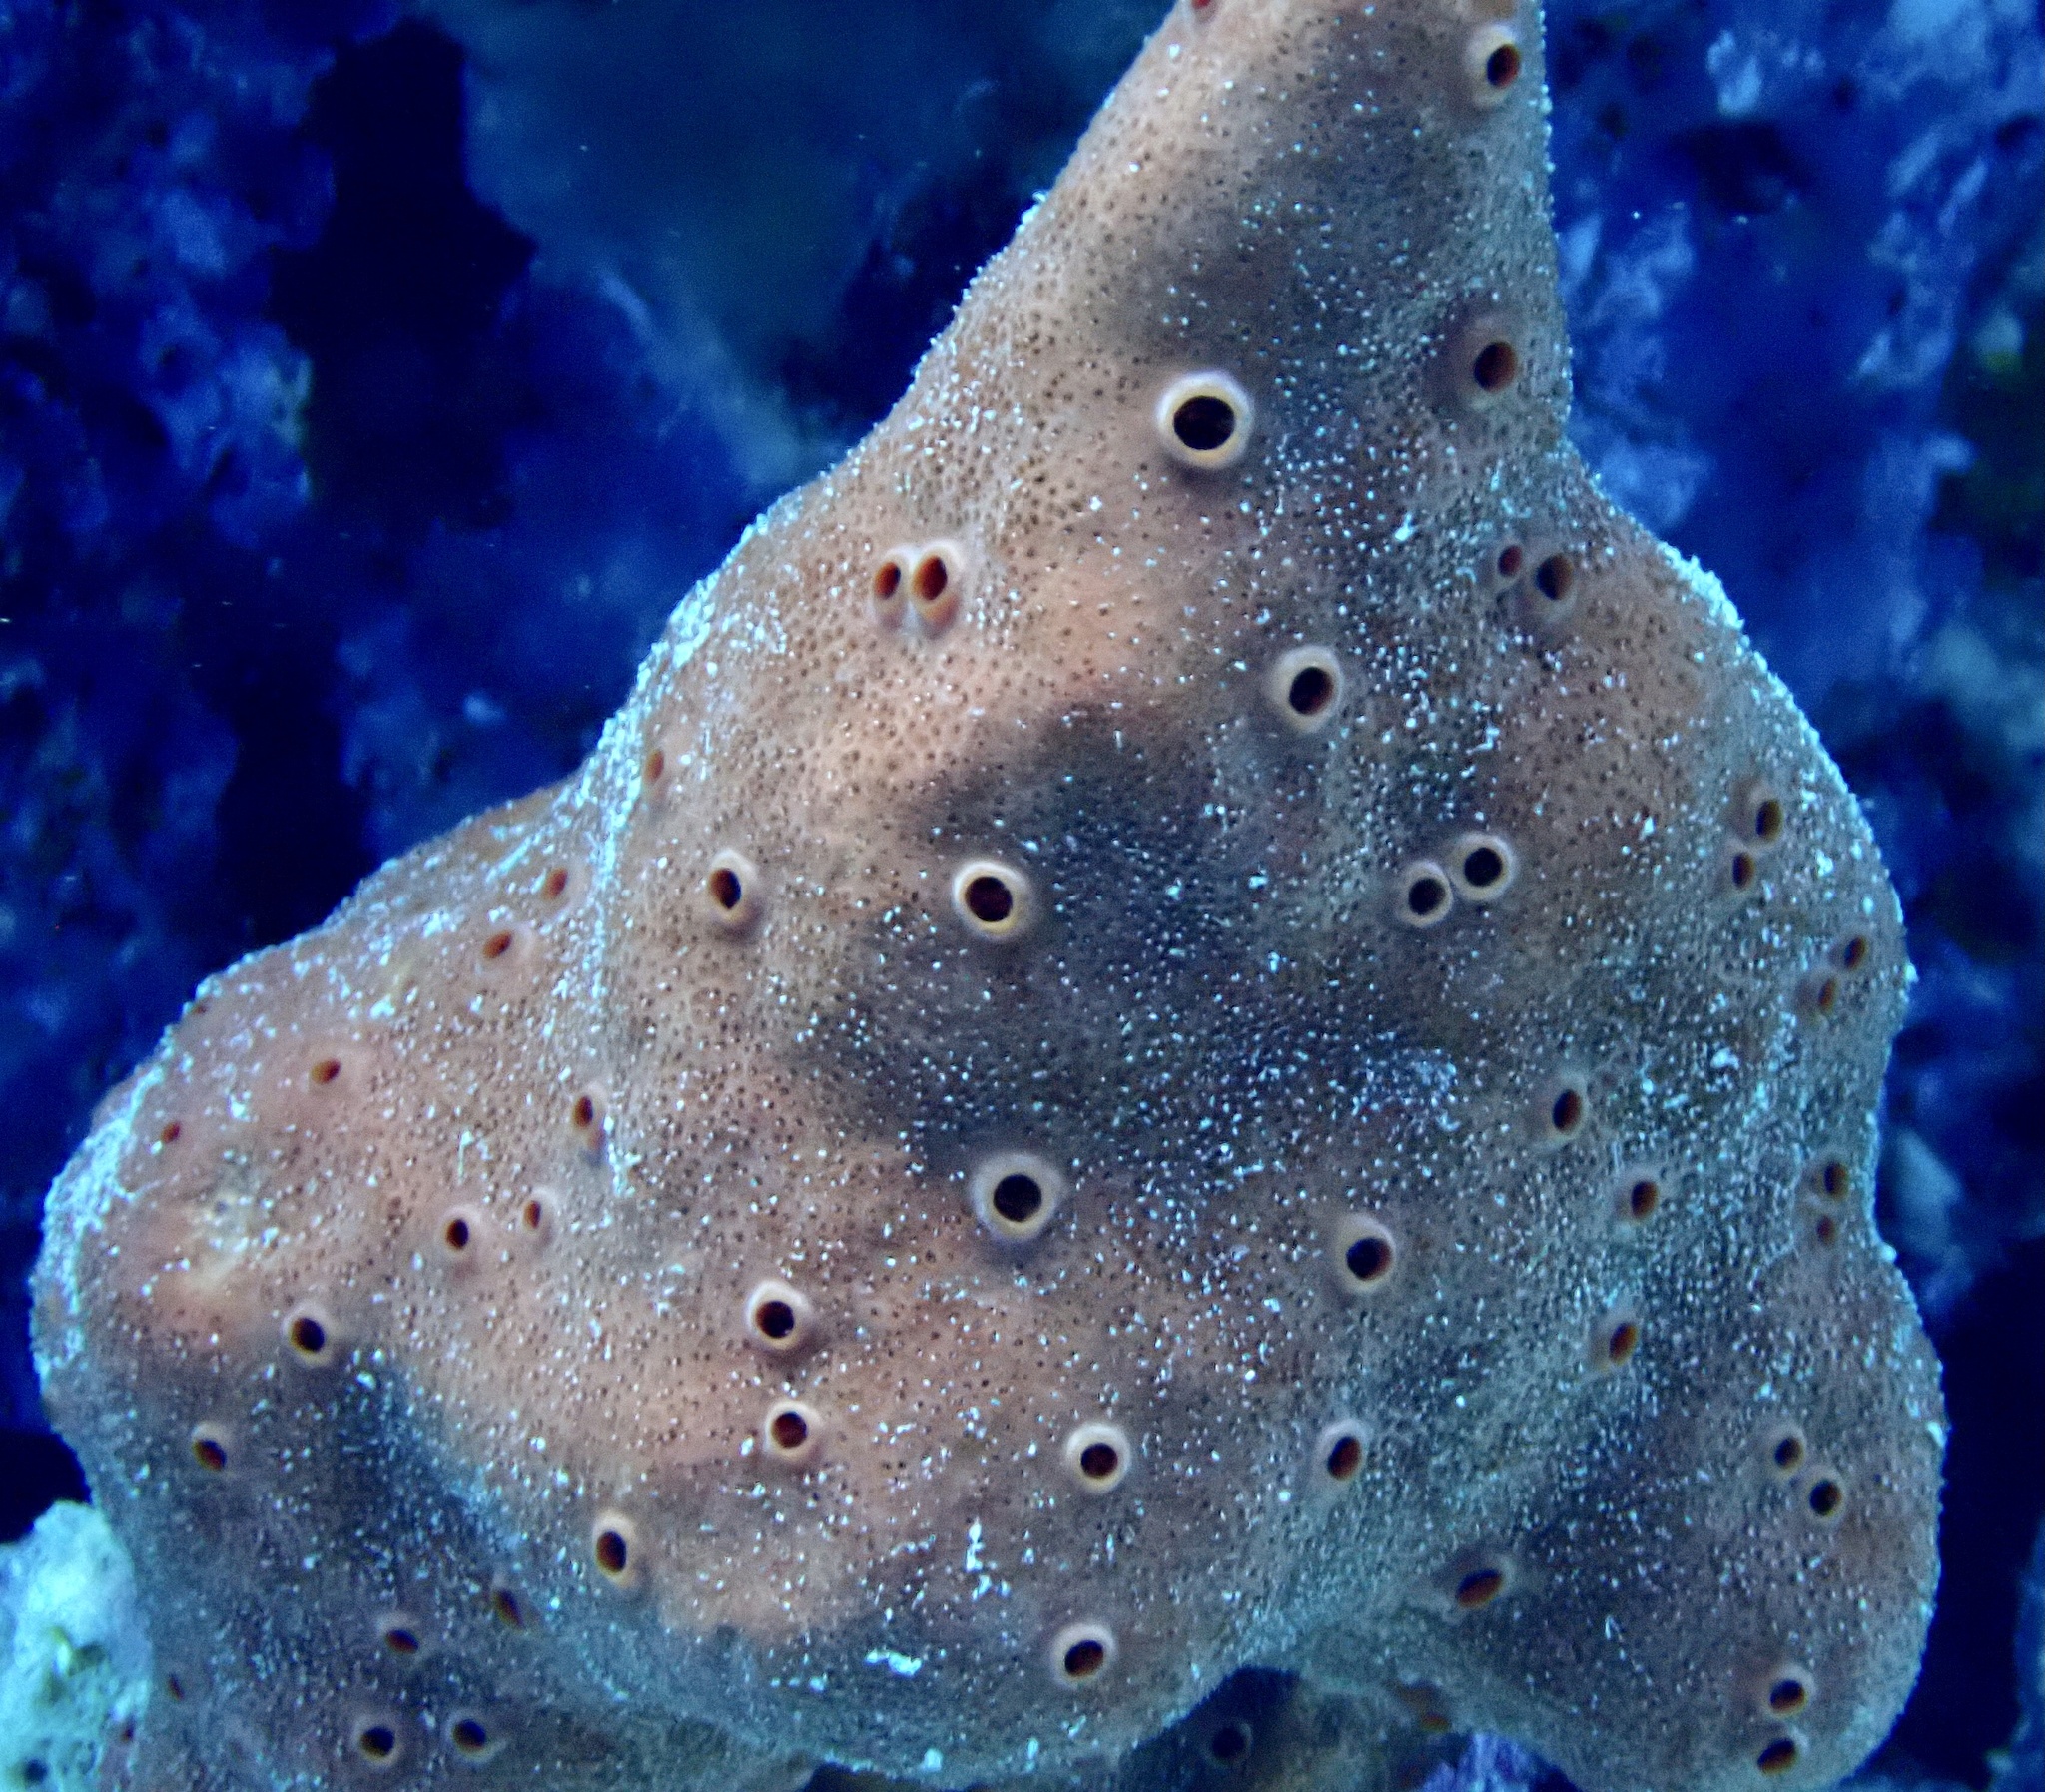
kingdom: Animalia
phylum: Porifera
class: Demospongiae
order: Clionaida
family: Clionaidae
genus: Pione
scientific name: Pione mussae
